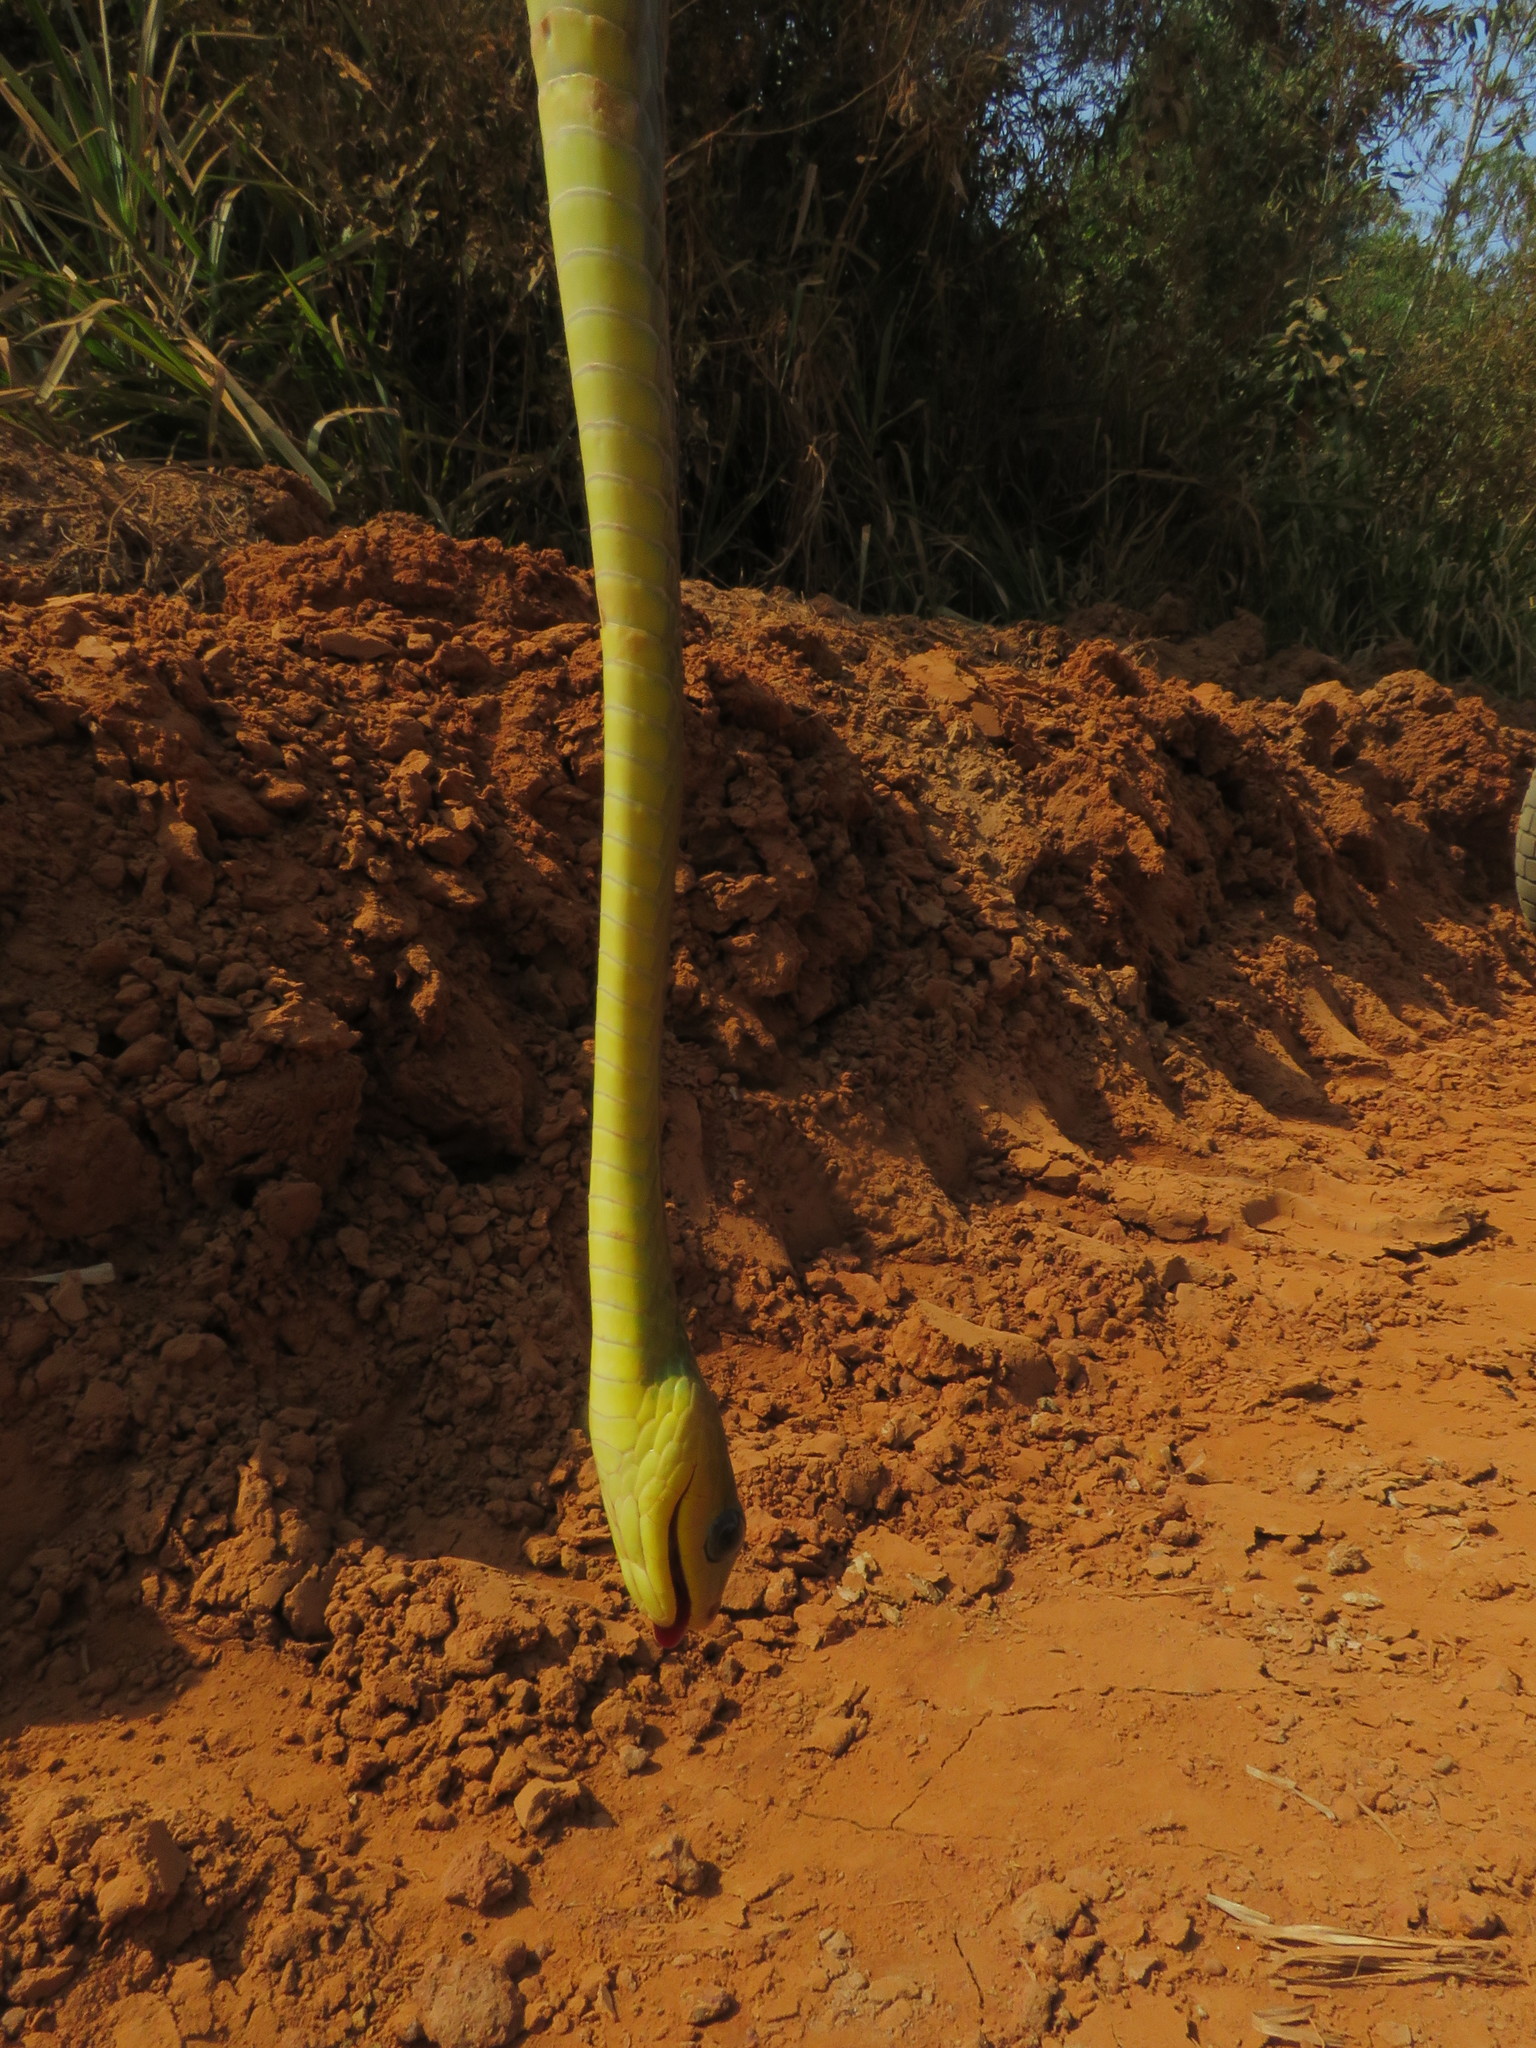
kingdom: Animalia
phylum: Chordata
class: Squamata
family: Colubridae
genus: Chironius
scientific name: Chironius exoletus
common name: Linnaeus' sipo
